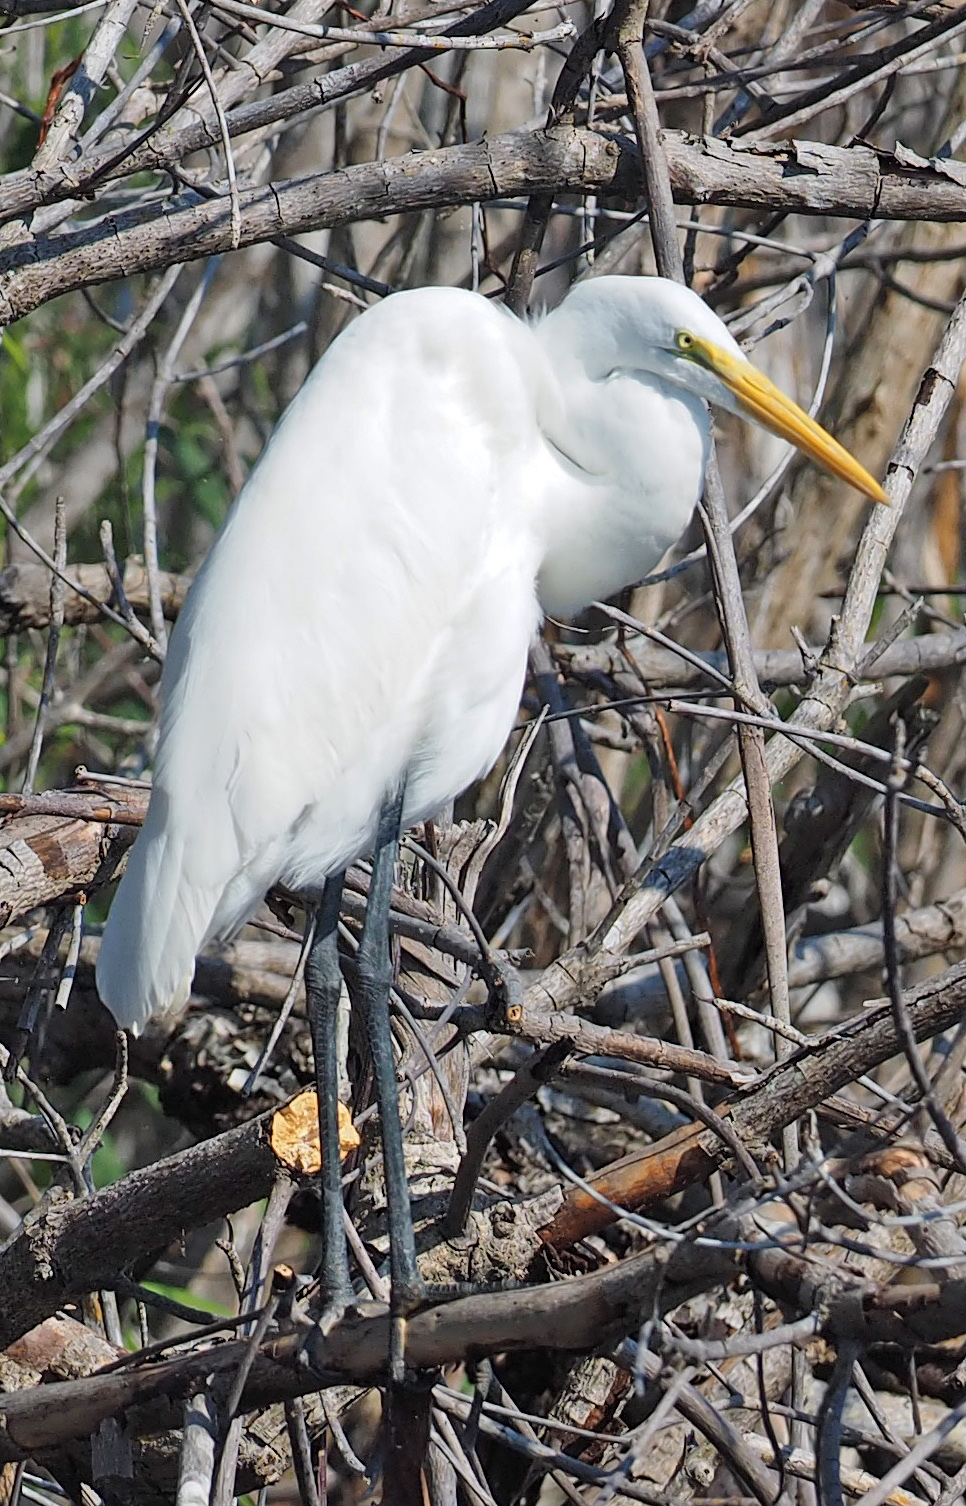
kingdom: Animalia
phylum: Chordata
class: Aves
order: Pelecaniformes
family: Ardeidae
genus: Ardea
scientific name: Ardea alba
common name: Great egret
